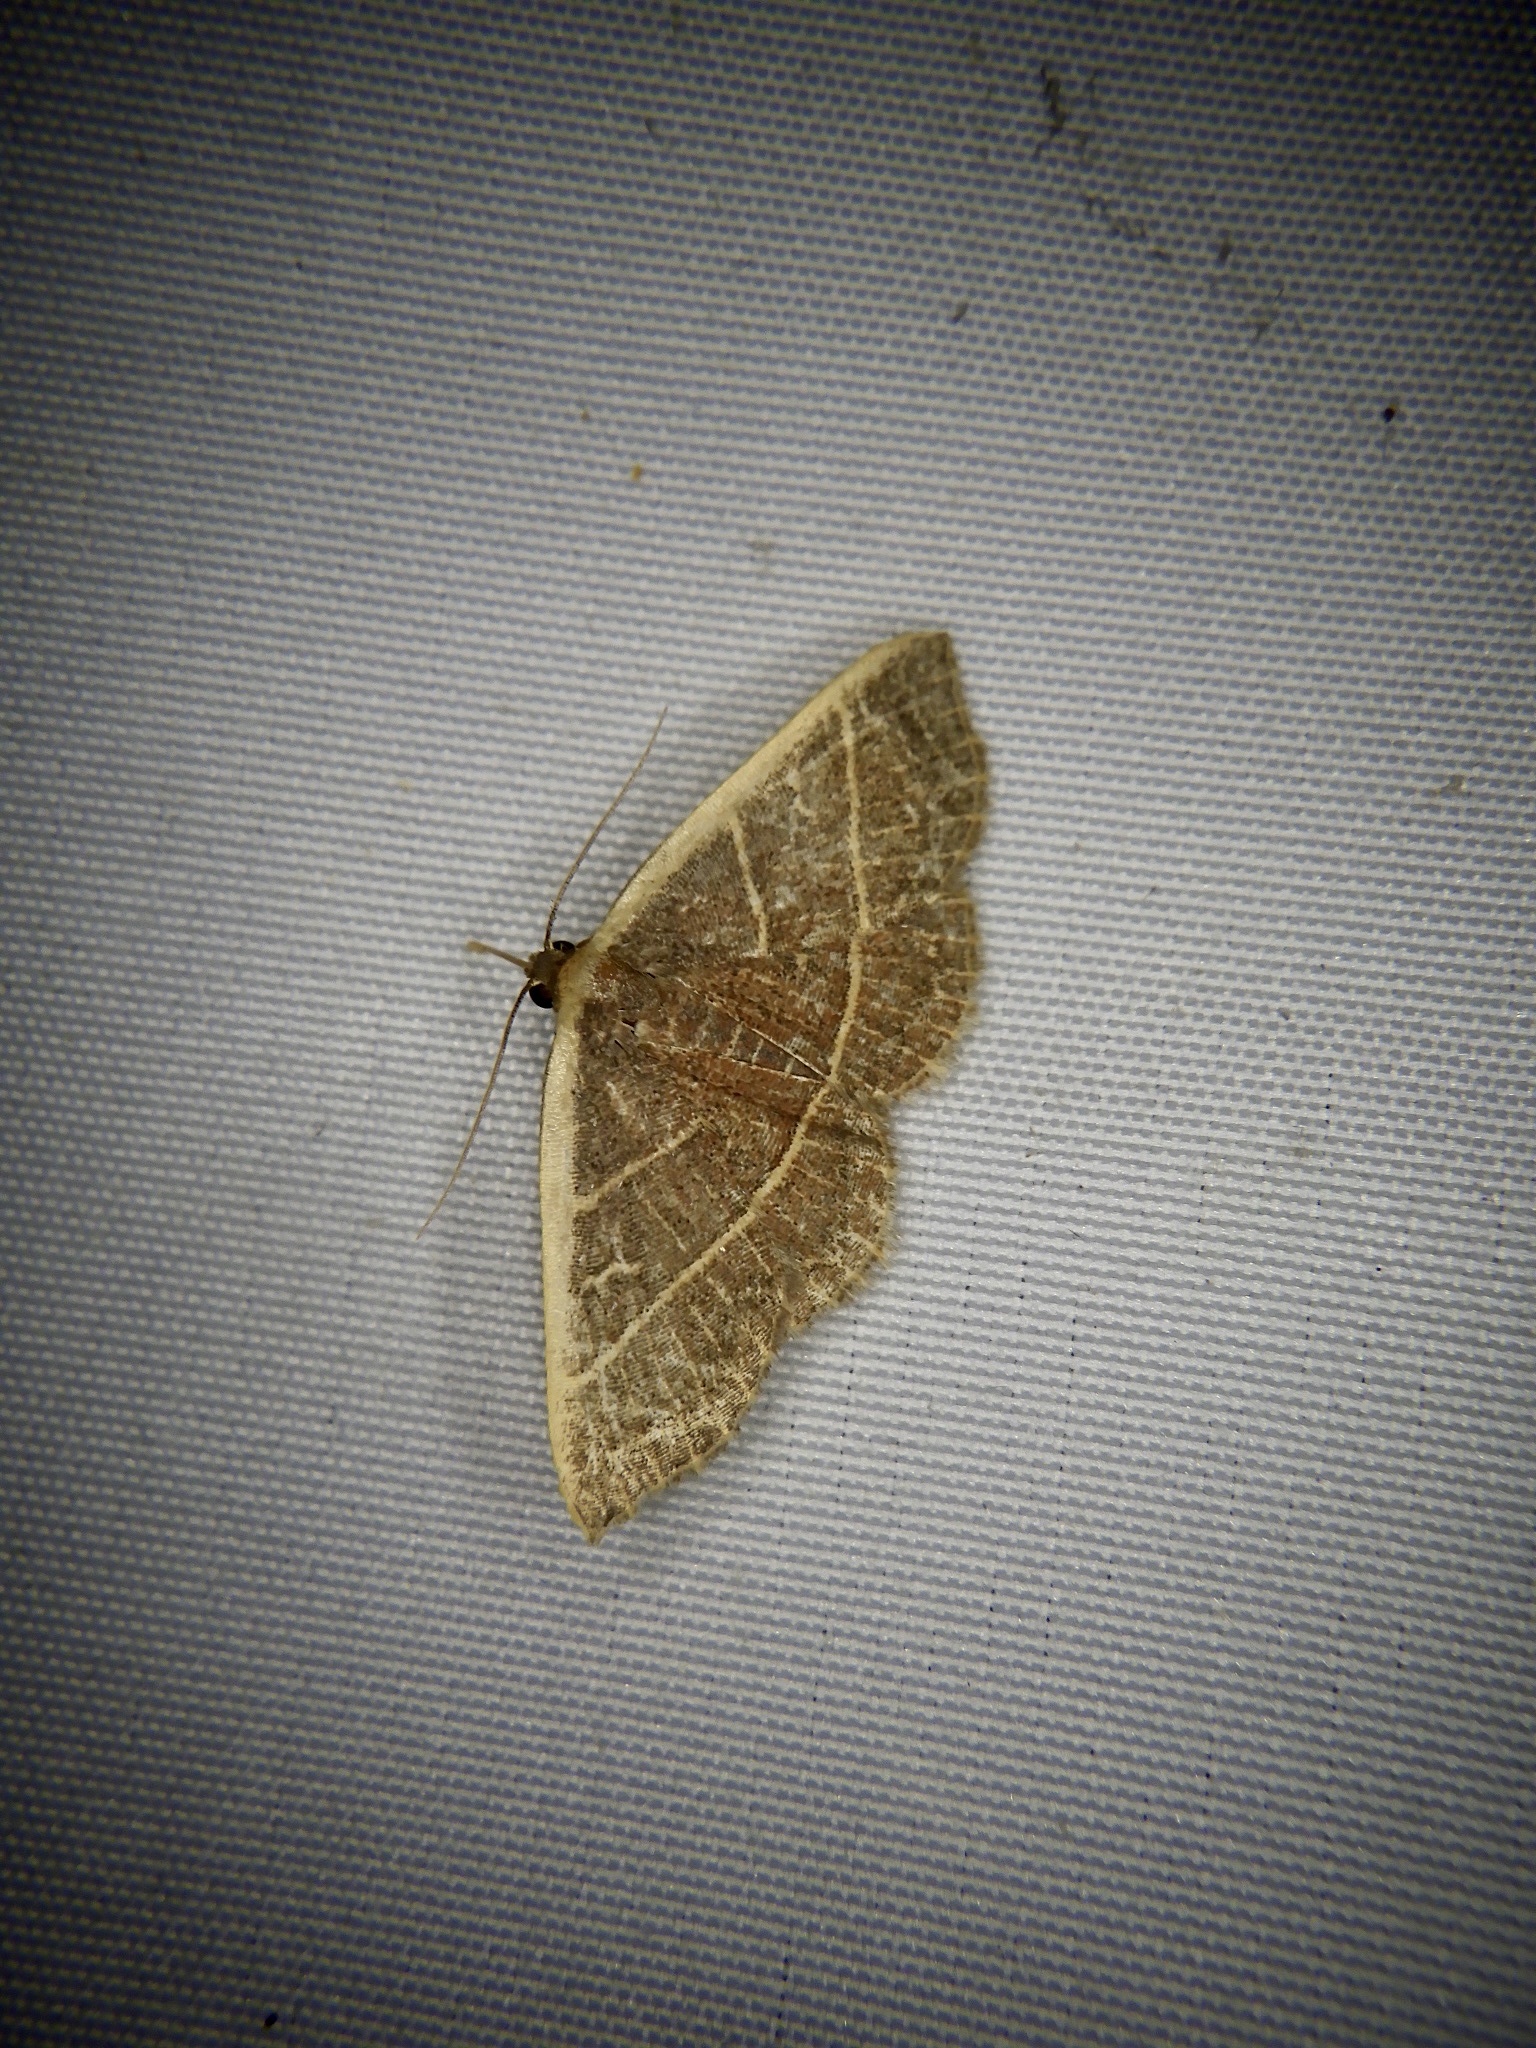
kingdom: Animalia
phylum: Arthropoda
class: Insecta
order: Lepidoptera
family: Noctuidae
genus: Oruza
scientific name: Oruza mira
